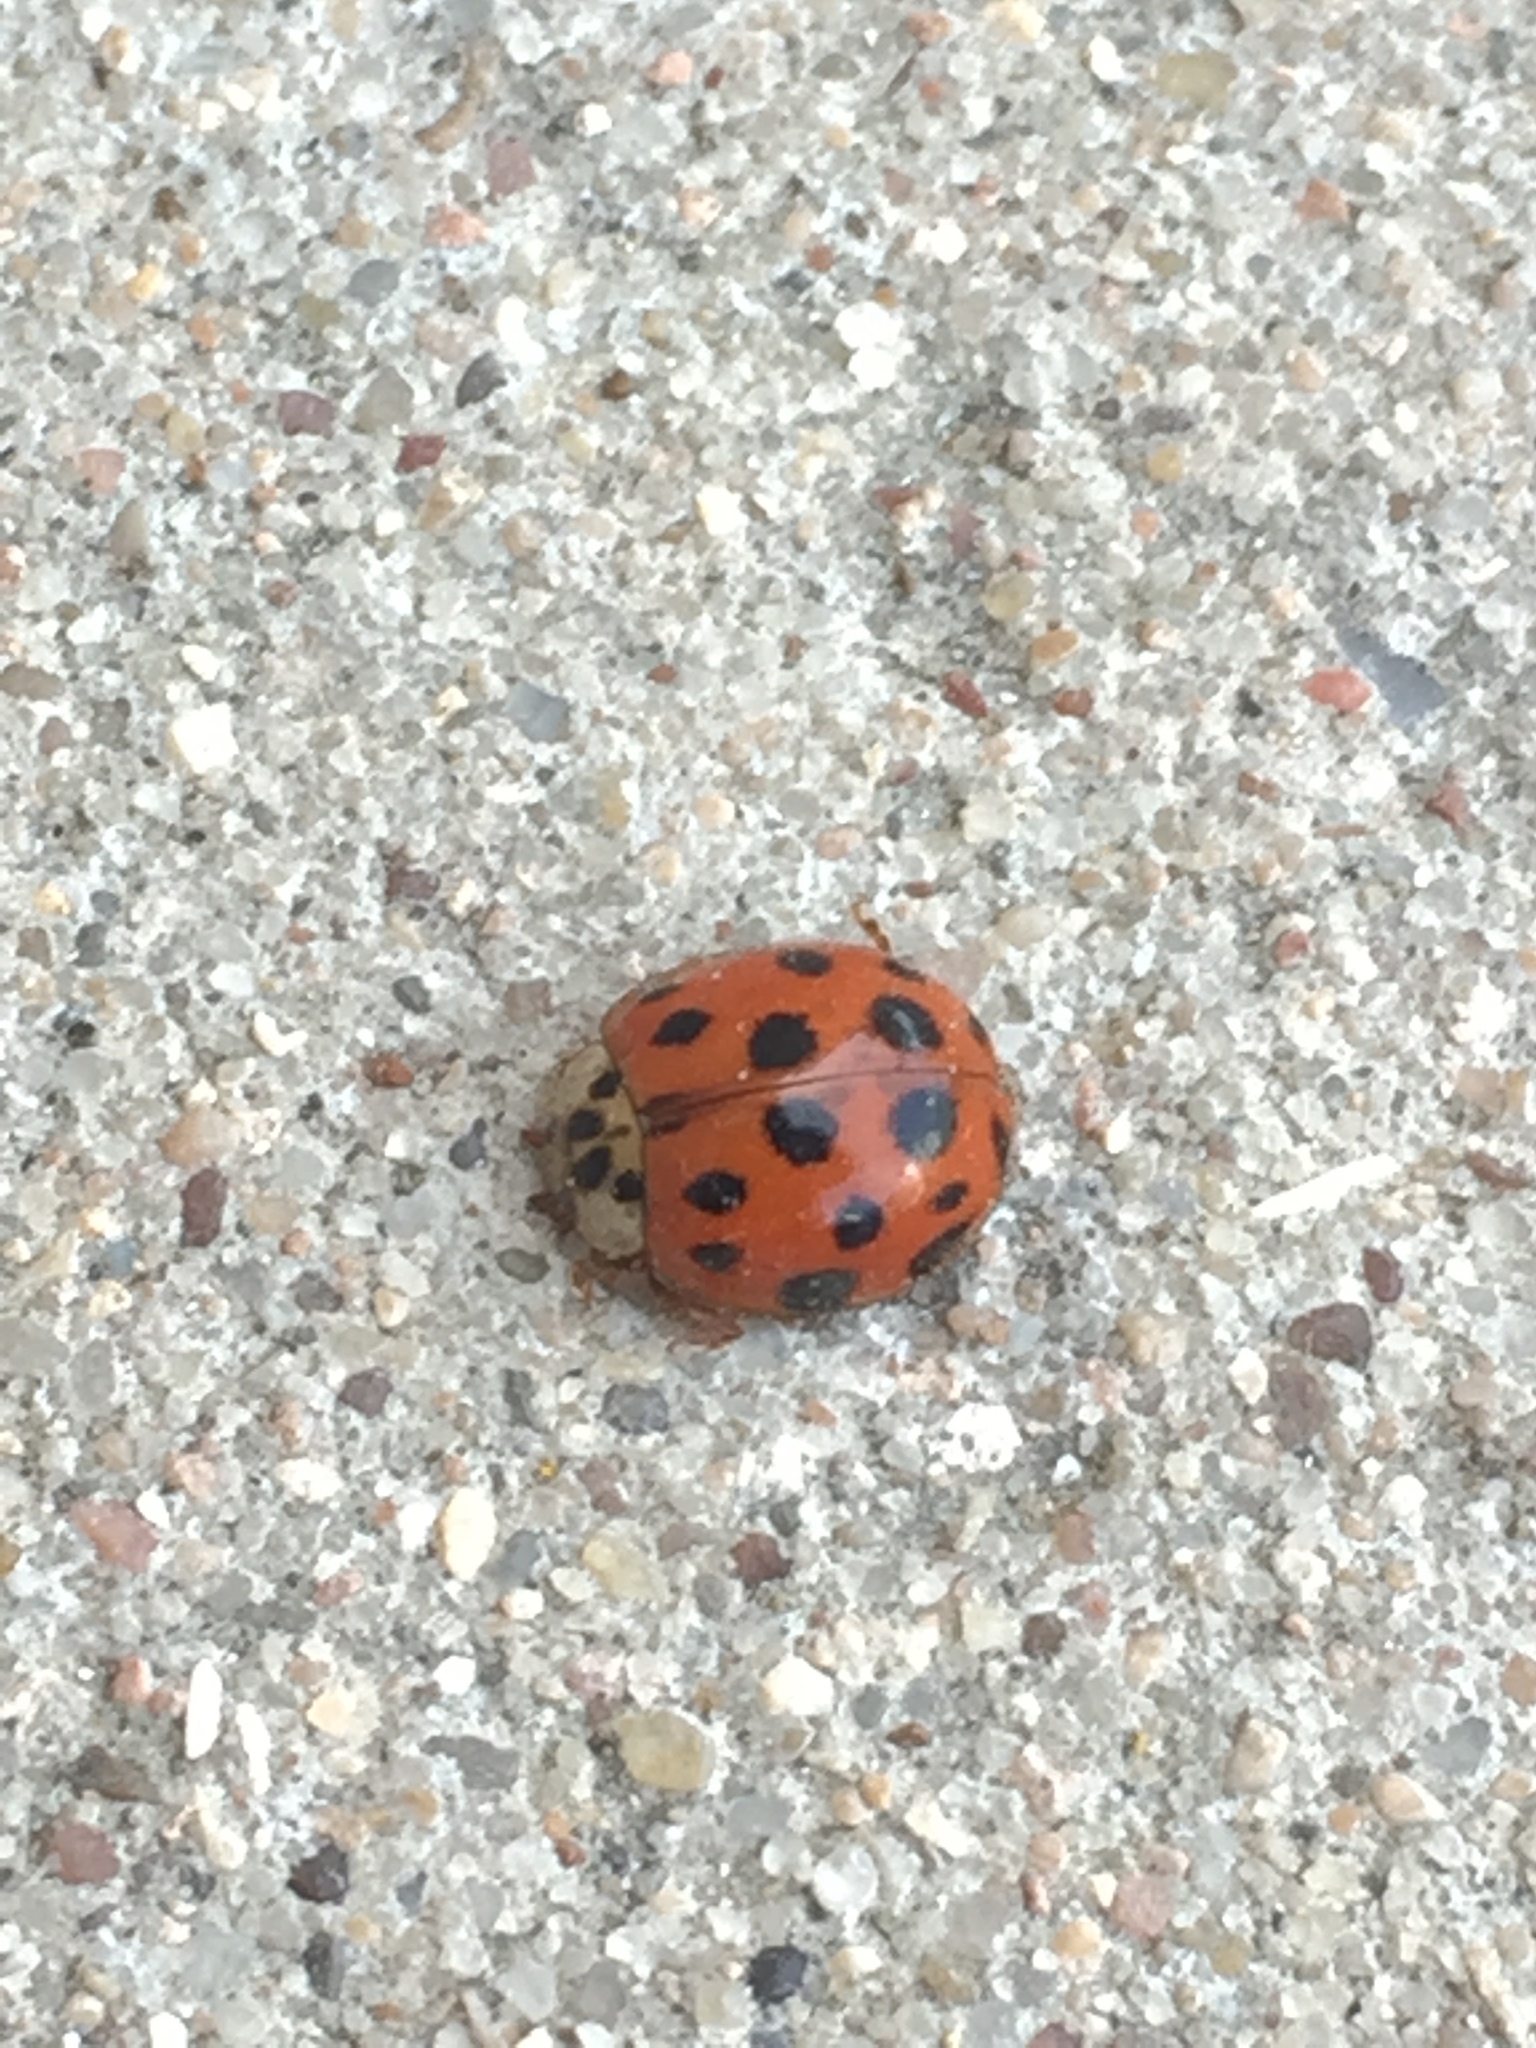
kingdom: Animalia
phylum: Arthropoda
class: Insecta
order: Coleoptera
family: Coccinellidae
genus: Harmonia
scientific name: Harmonia axyridis
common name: Harlequin ladybird
